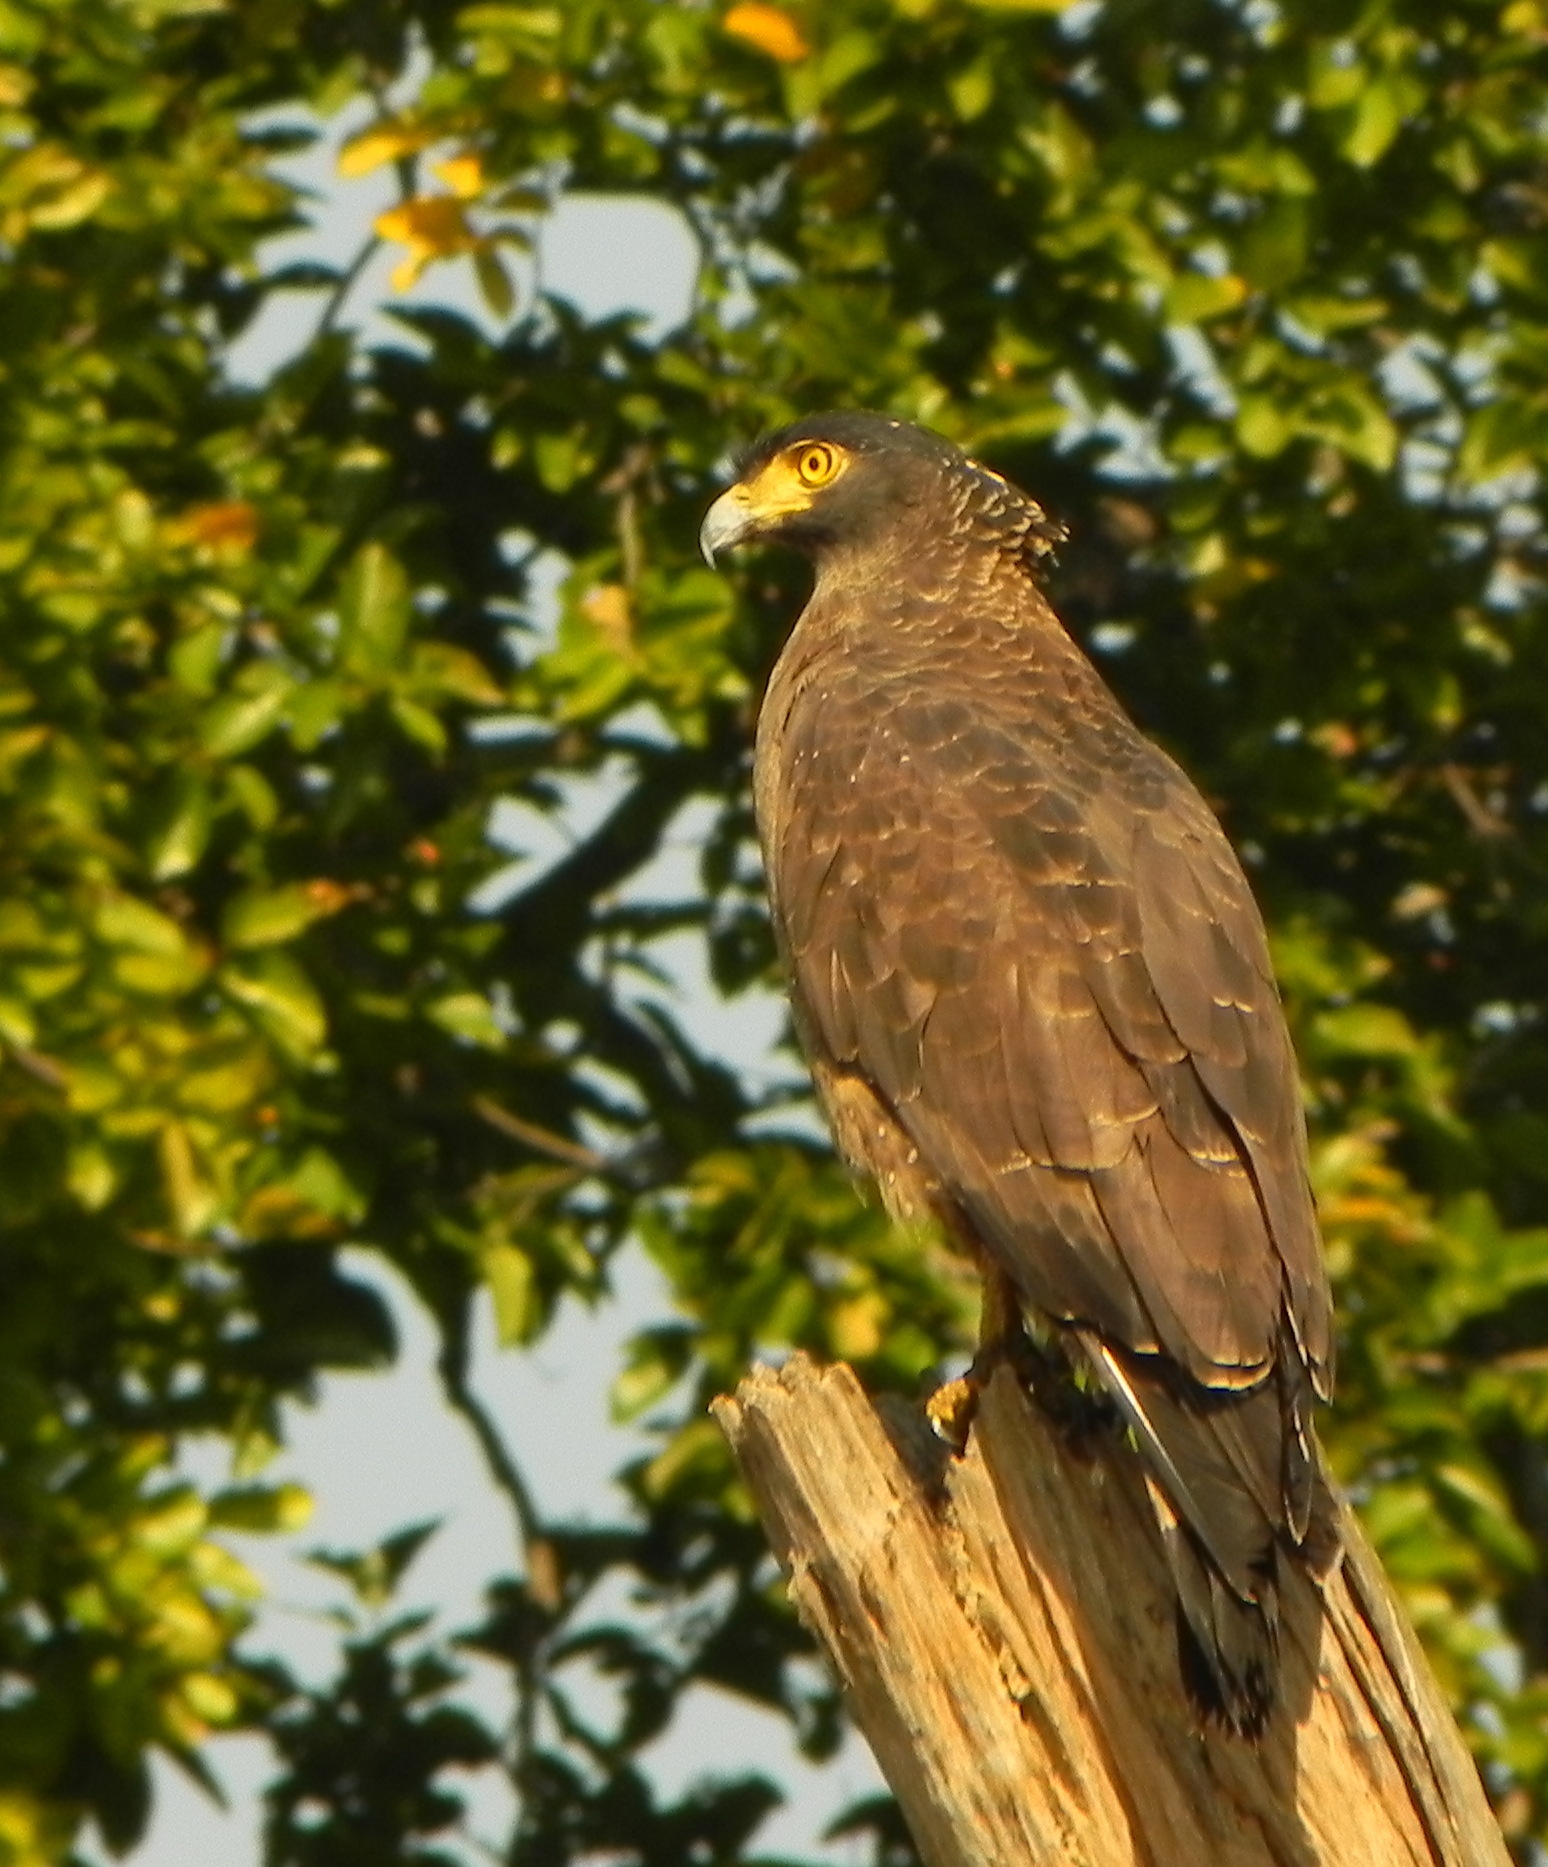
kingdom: Animalia
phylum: Chordata
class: Aves
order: Accipitriformes
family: Accipitridae
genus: Spilornis
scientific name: Spilornis cheela
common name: Crested serpent eagle
